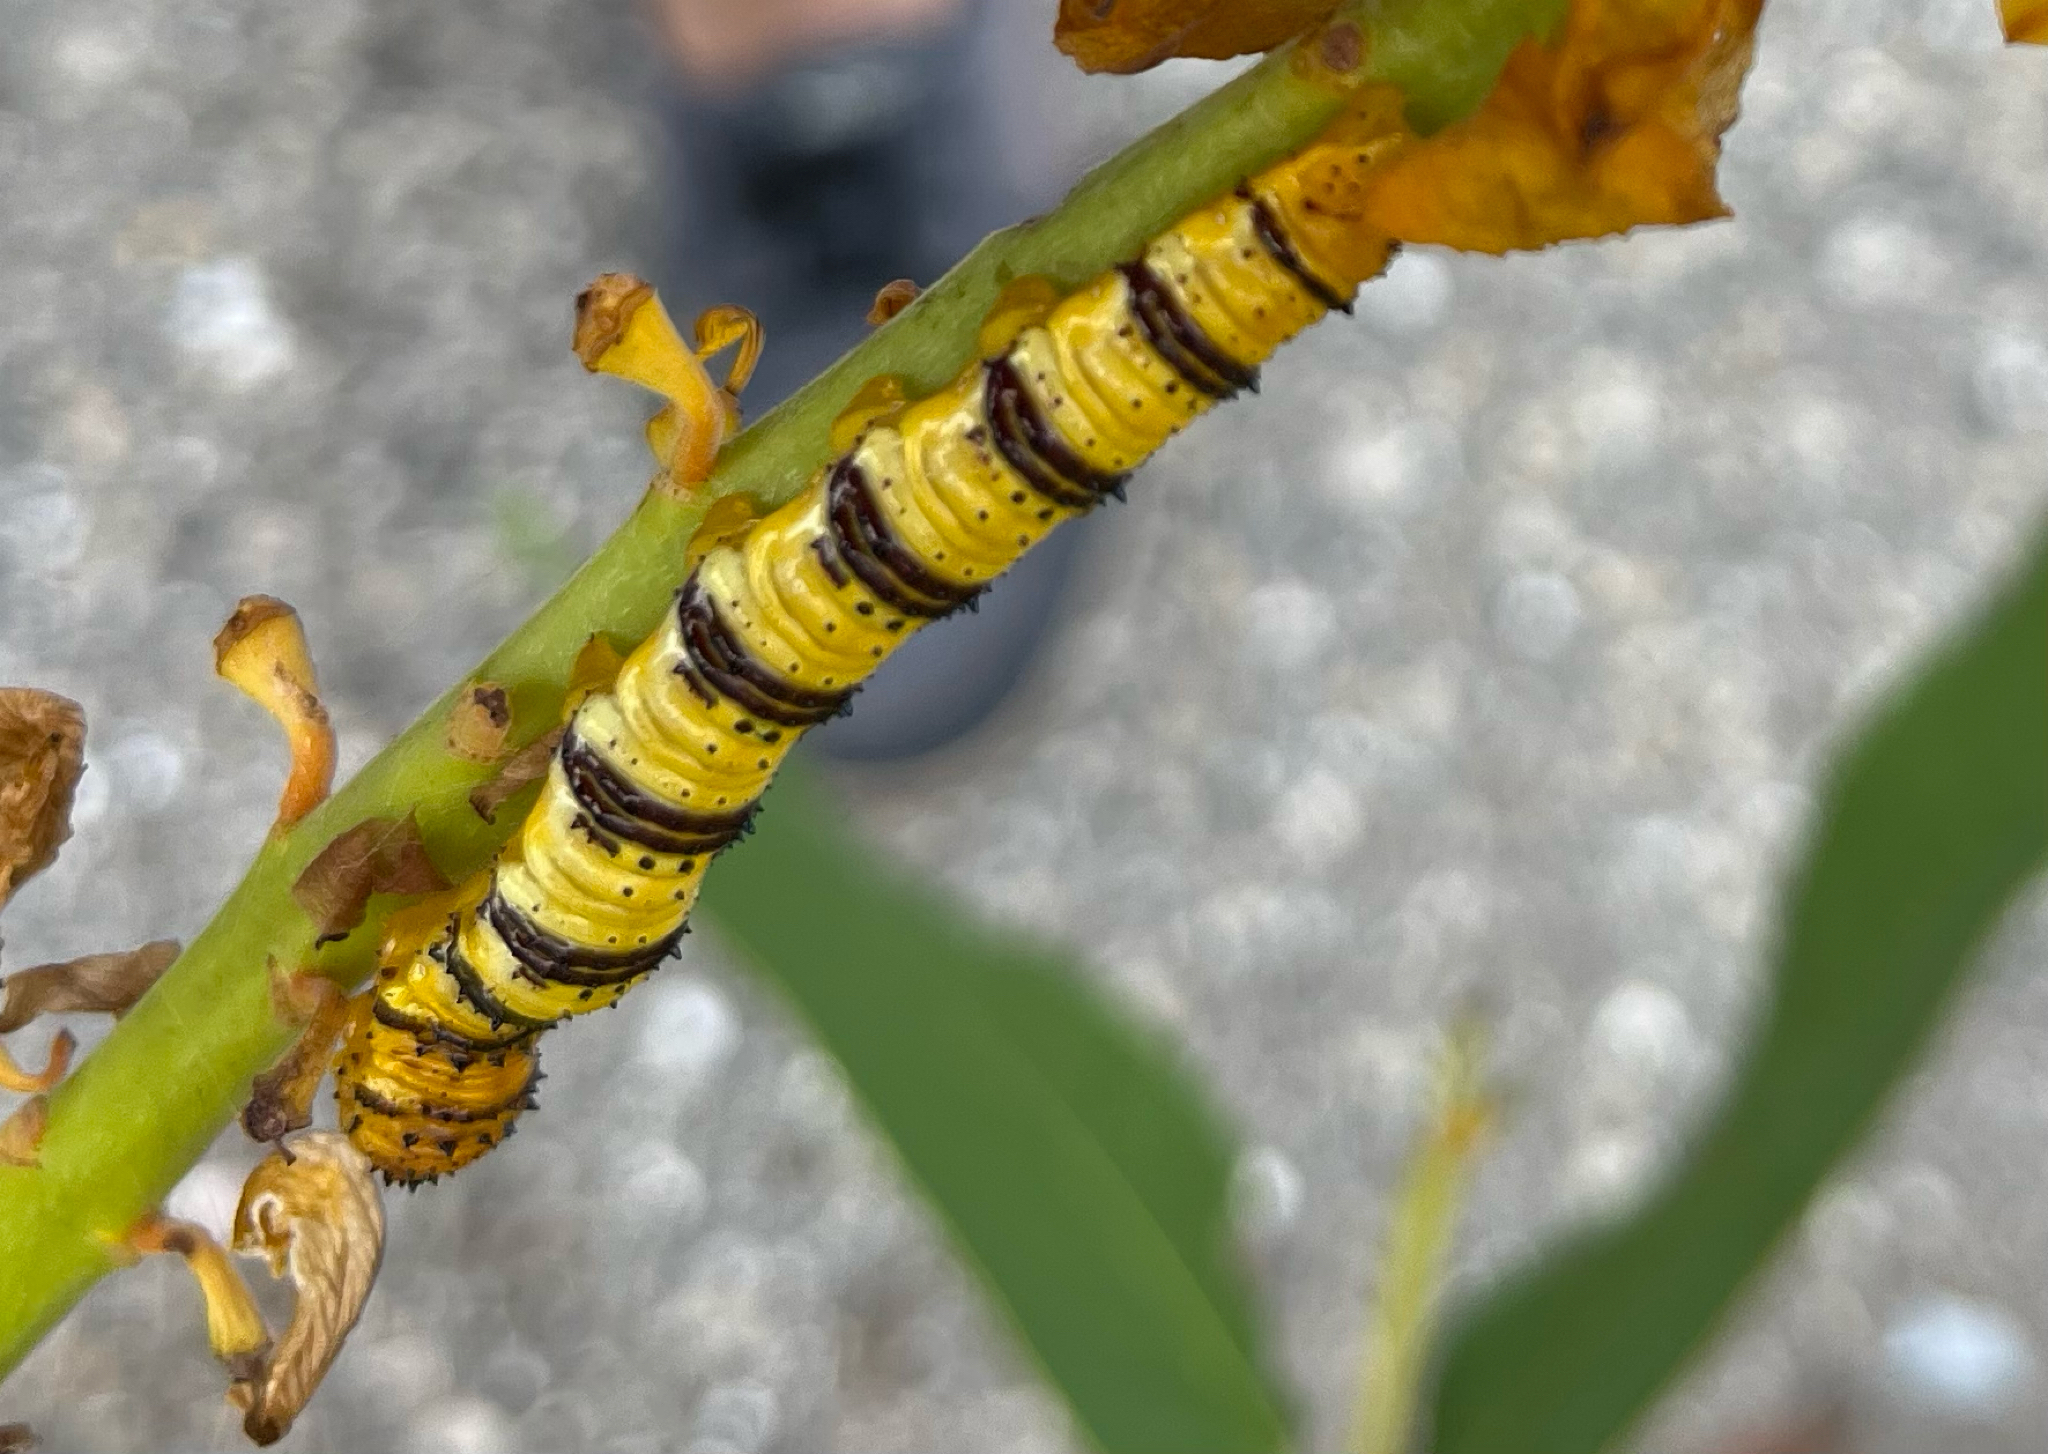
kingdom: Animalia
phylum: Arthropoda
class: Insecta
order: Lepidoptera
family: Pieridae
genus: Phoebis
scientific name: Phoebis philea
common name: Orange-barred giant sulphur
